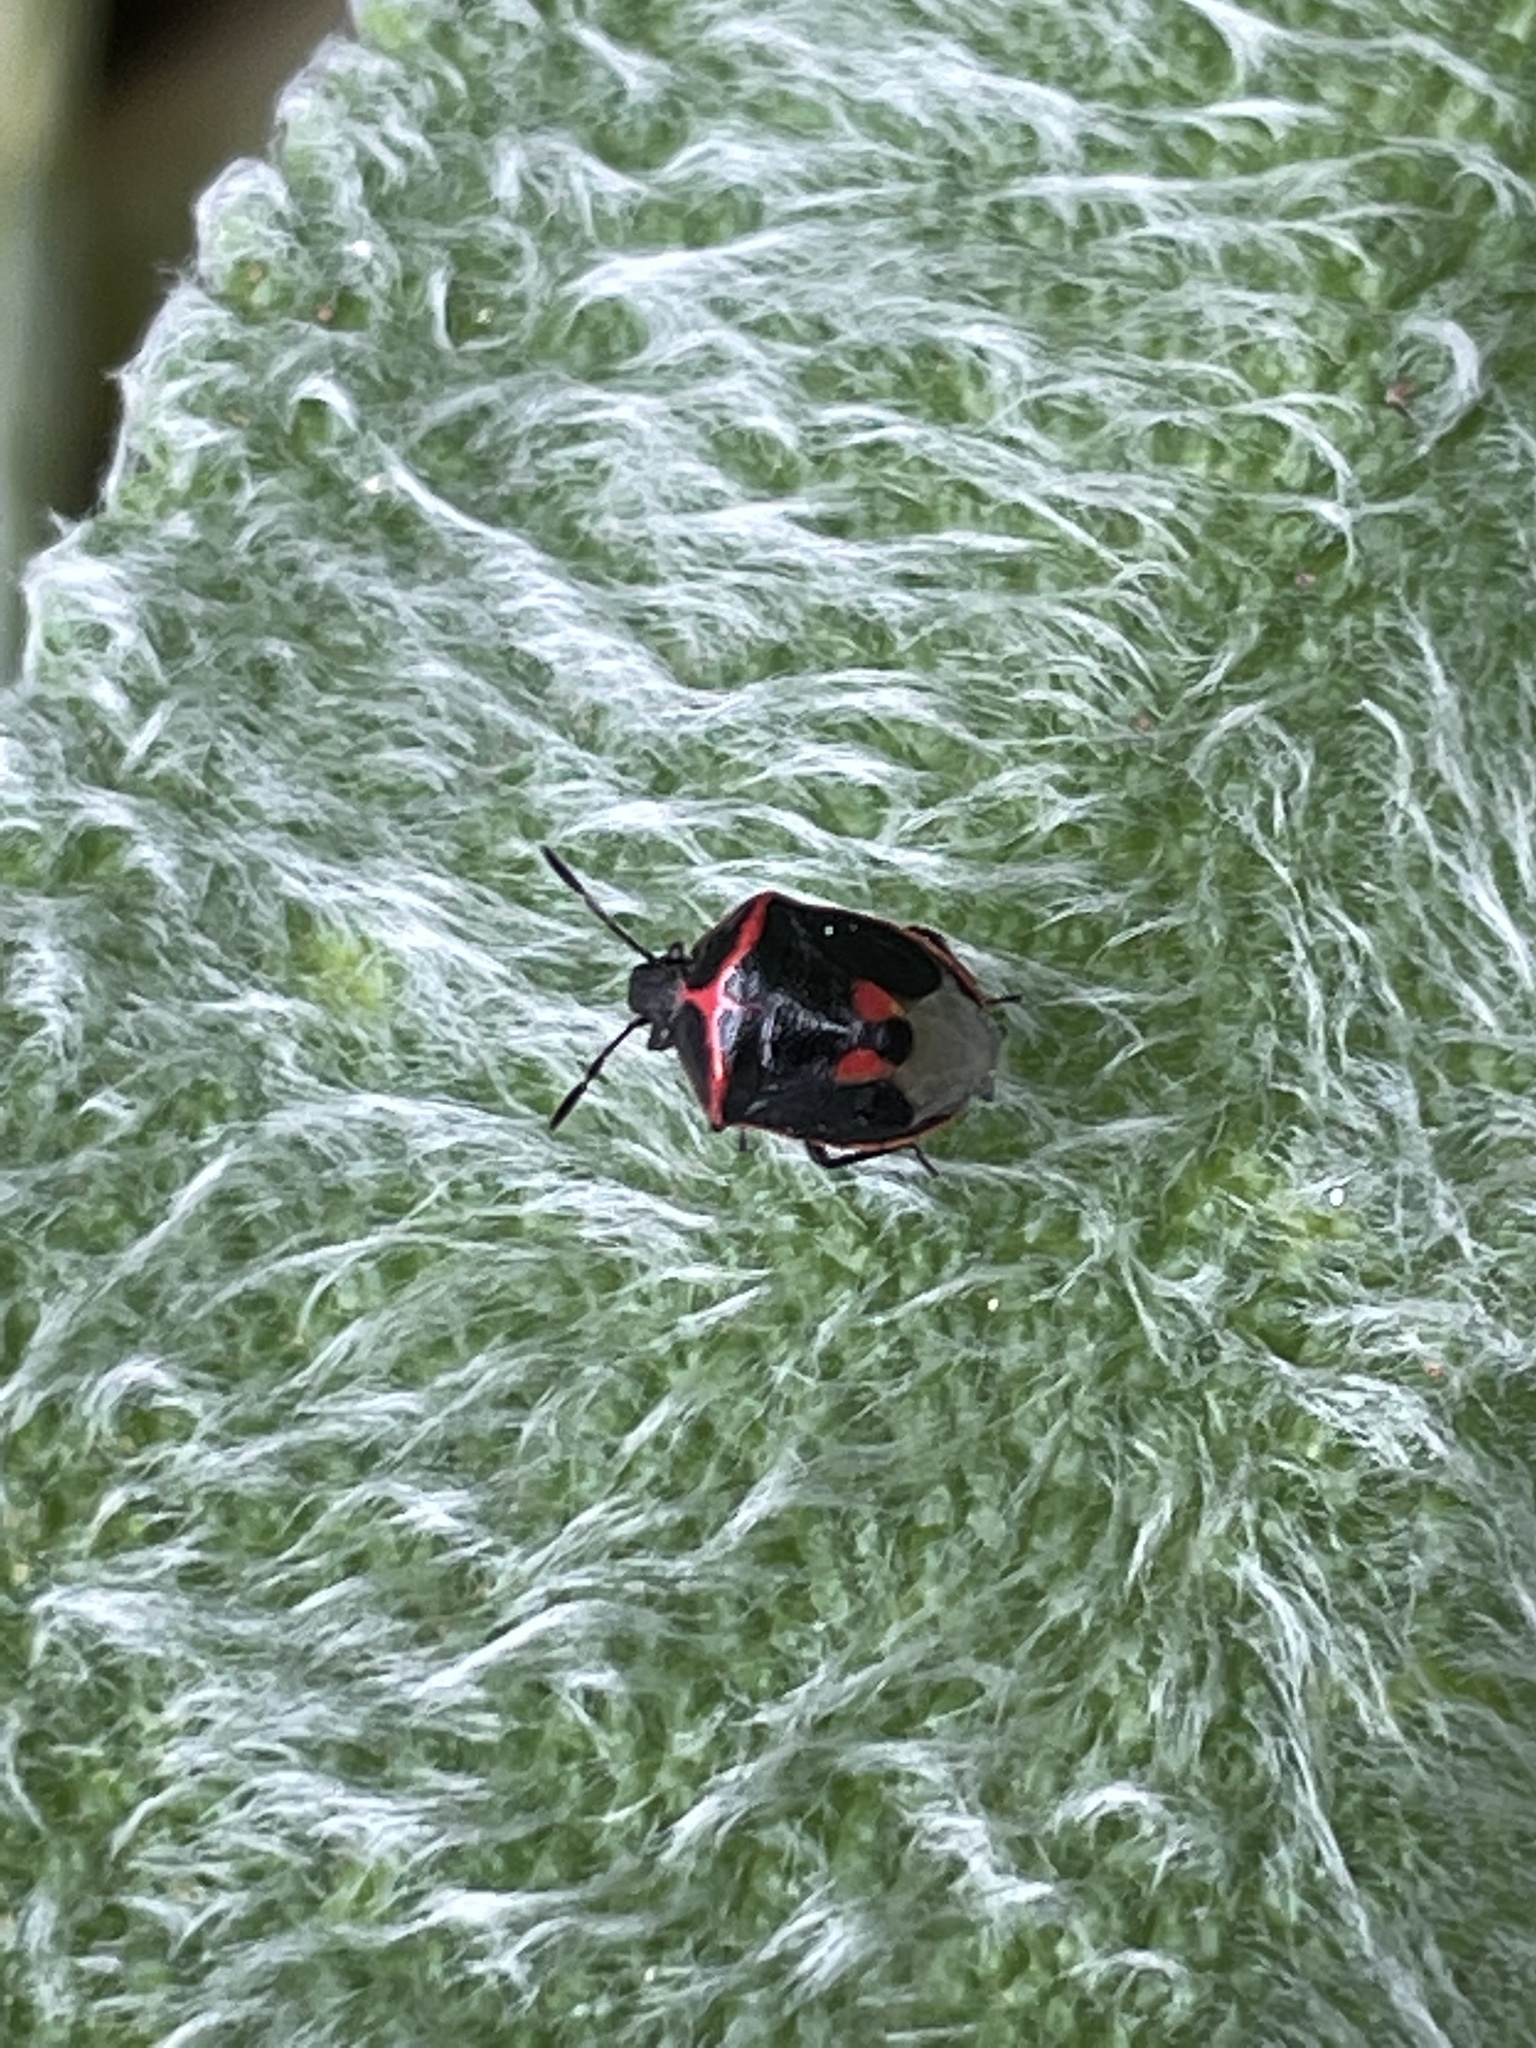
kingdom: Animalia
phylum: Arthropoda
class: Insecta
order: Hemiptera
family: Pentatomidae
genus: Cosmopepla
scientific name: Cosmopepla lintneriana
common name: Twice-stabbed stink bug
